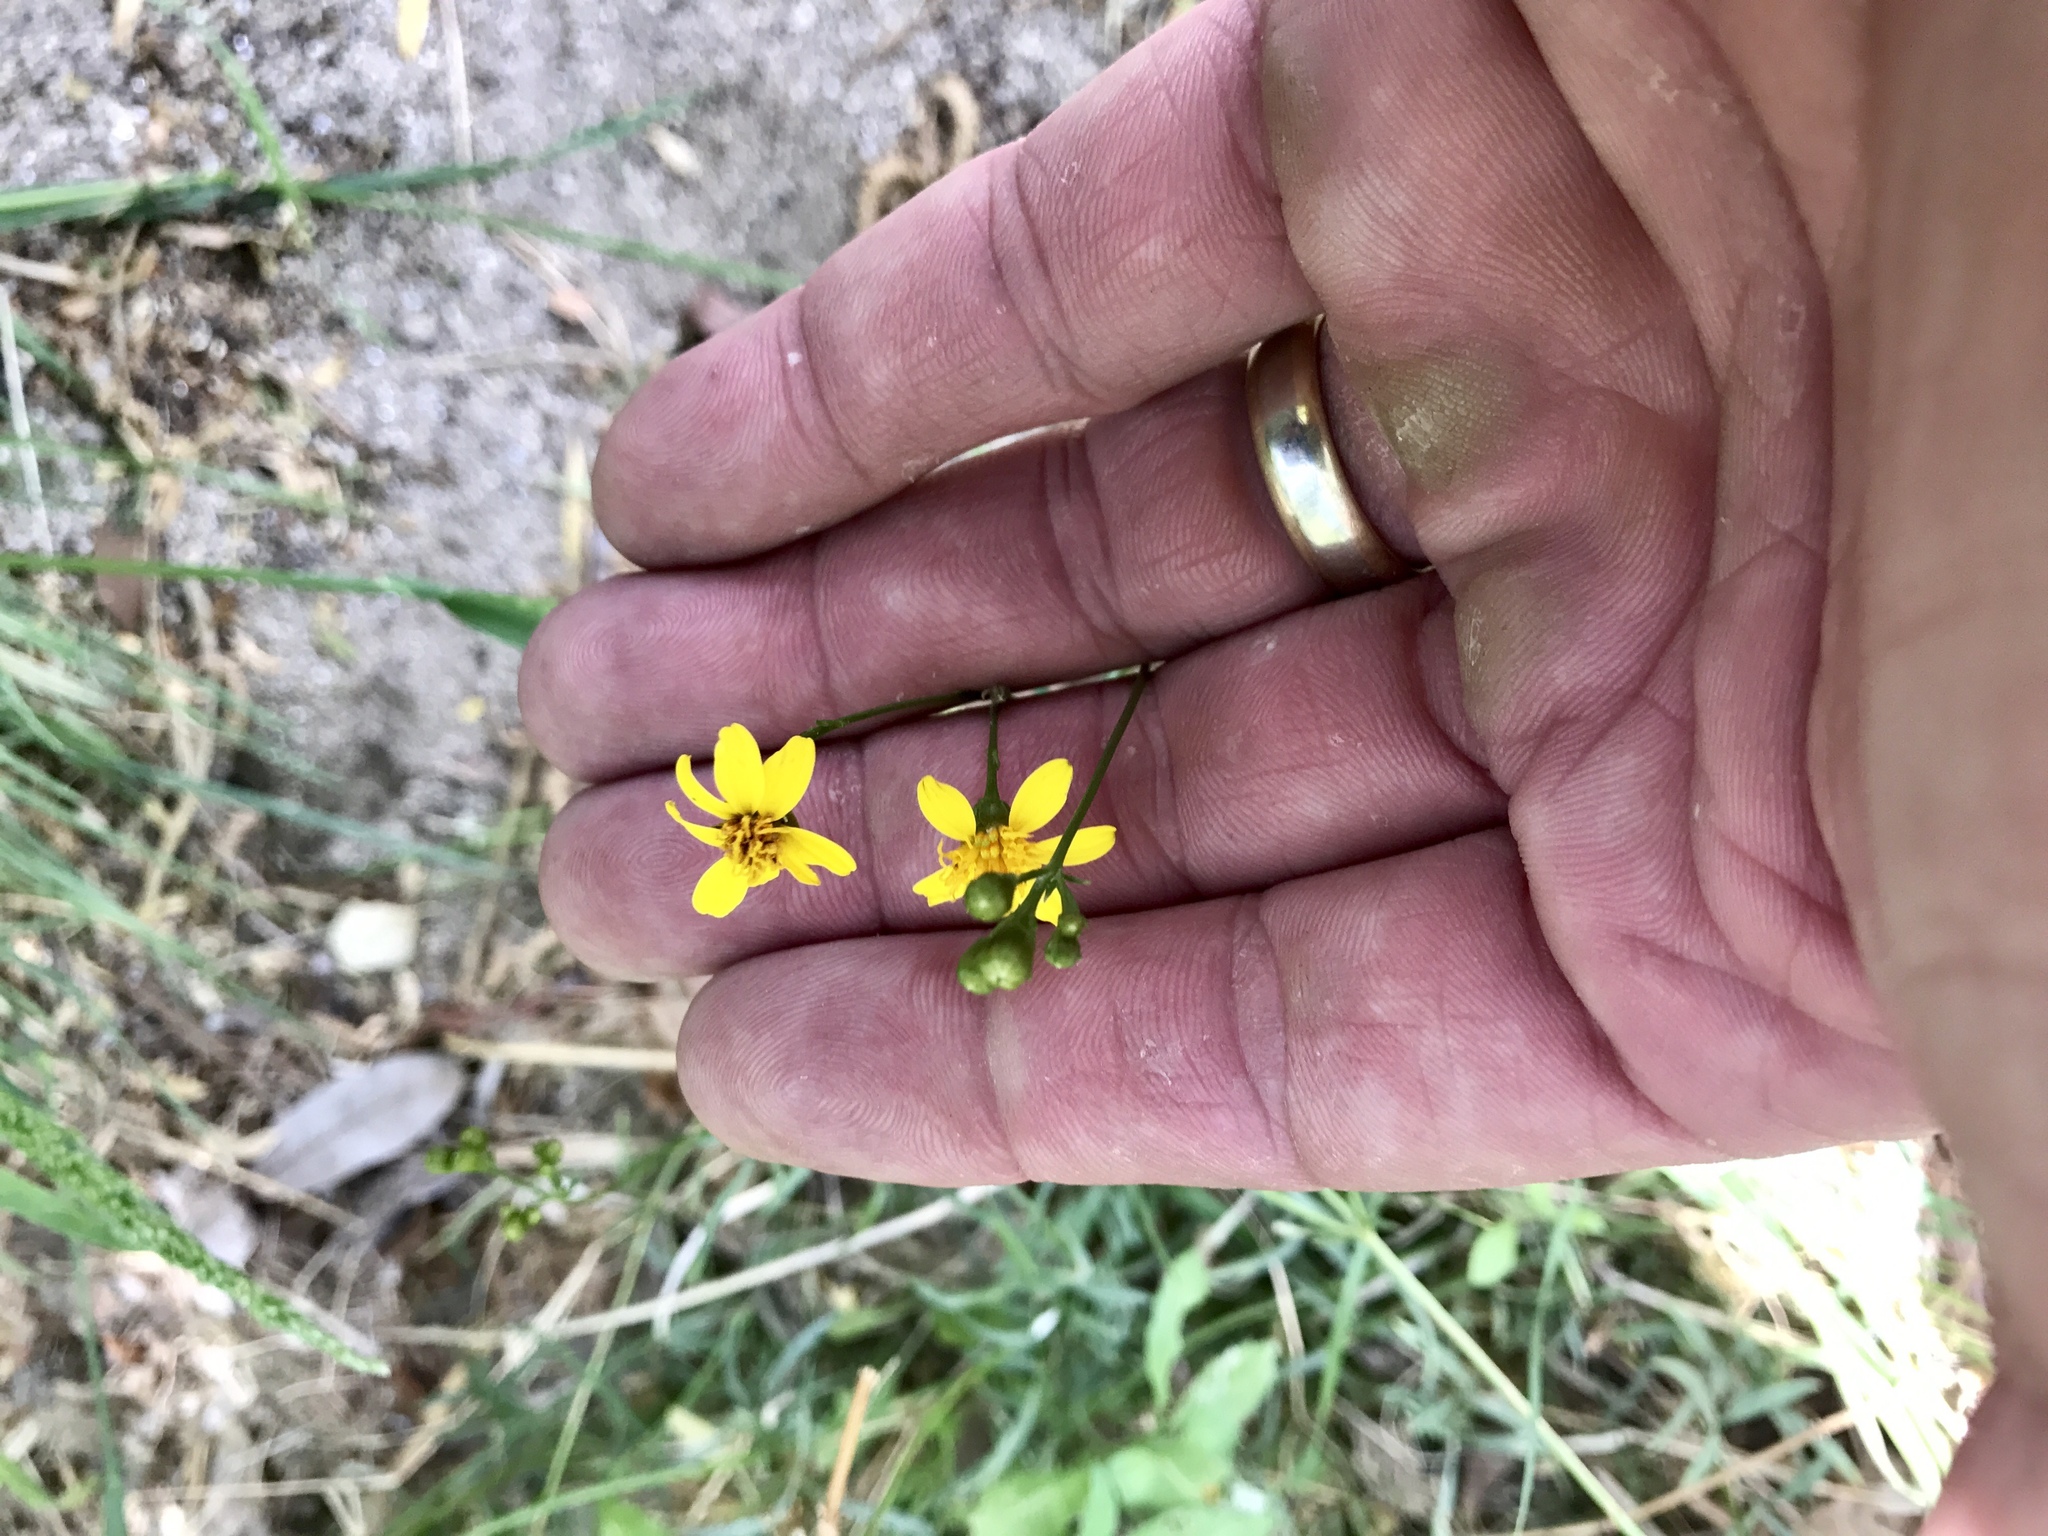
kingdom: Plantae
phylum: Tracheophyta
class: Magnoliopsida
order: Asterales
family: Asteraceae
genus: Coreocarpus
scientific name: Coreocarpus arizonicus
